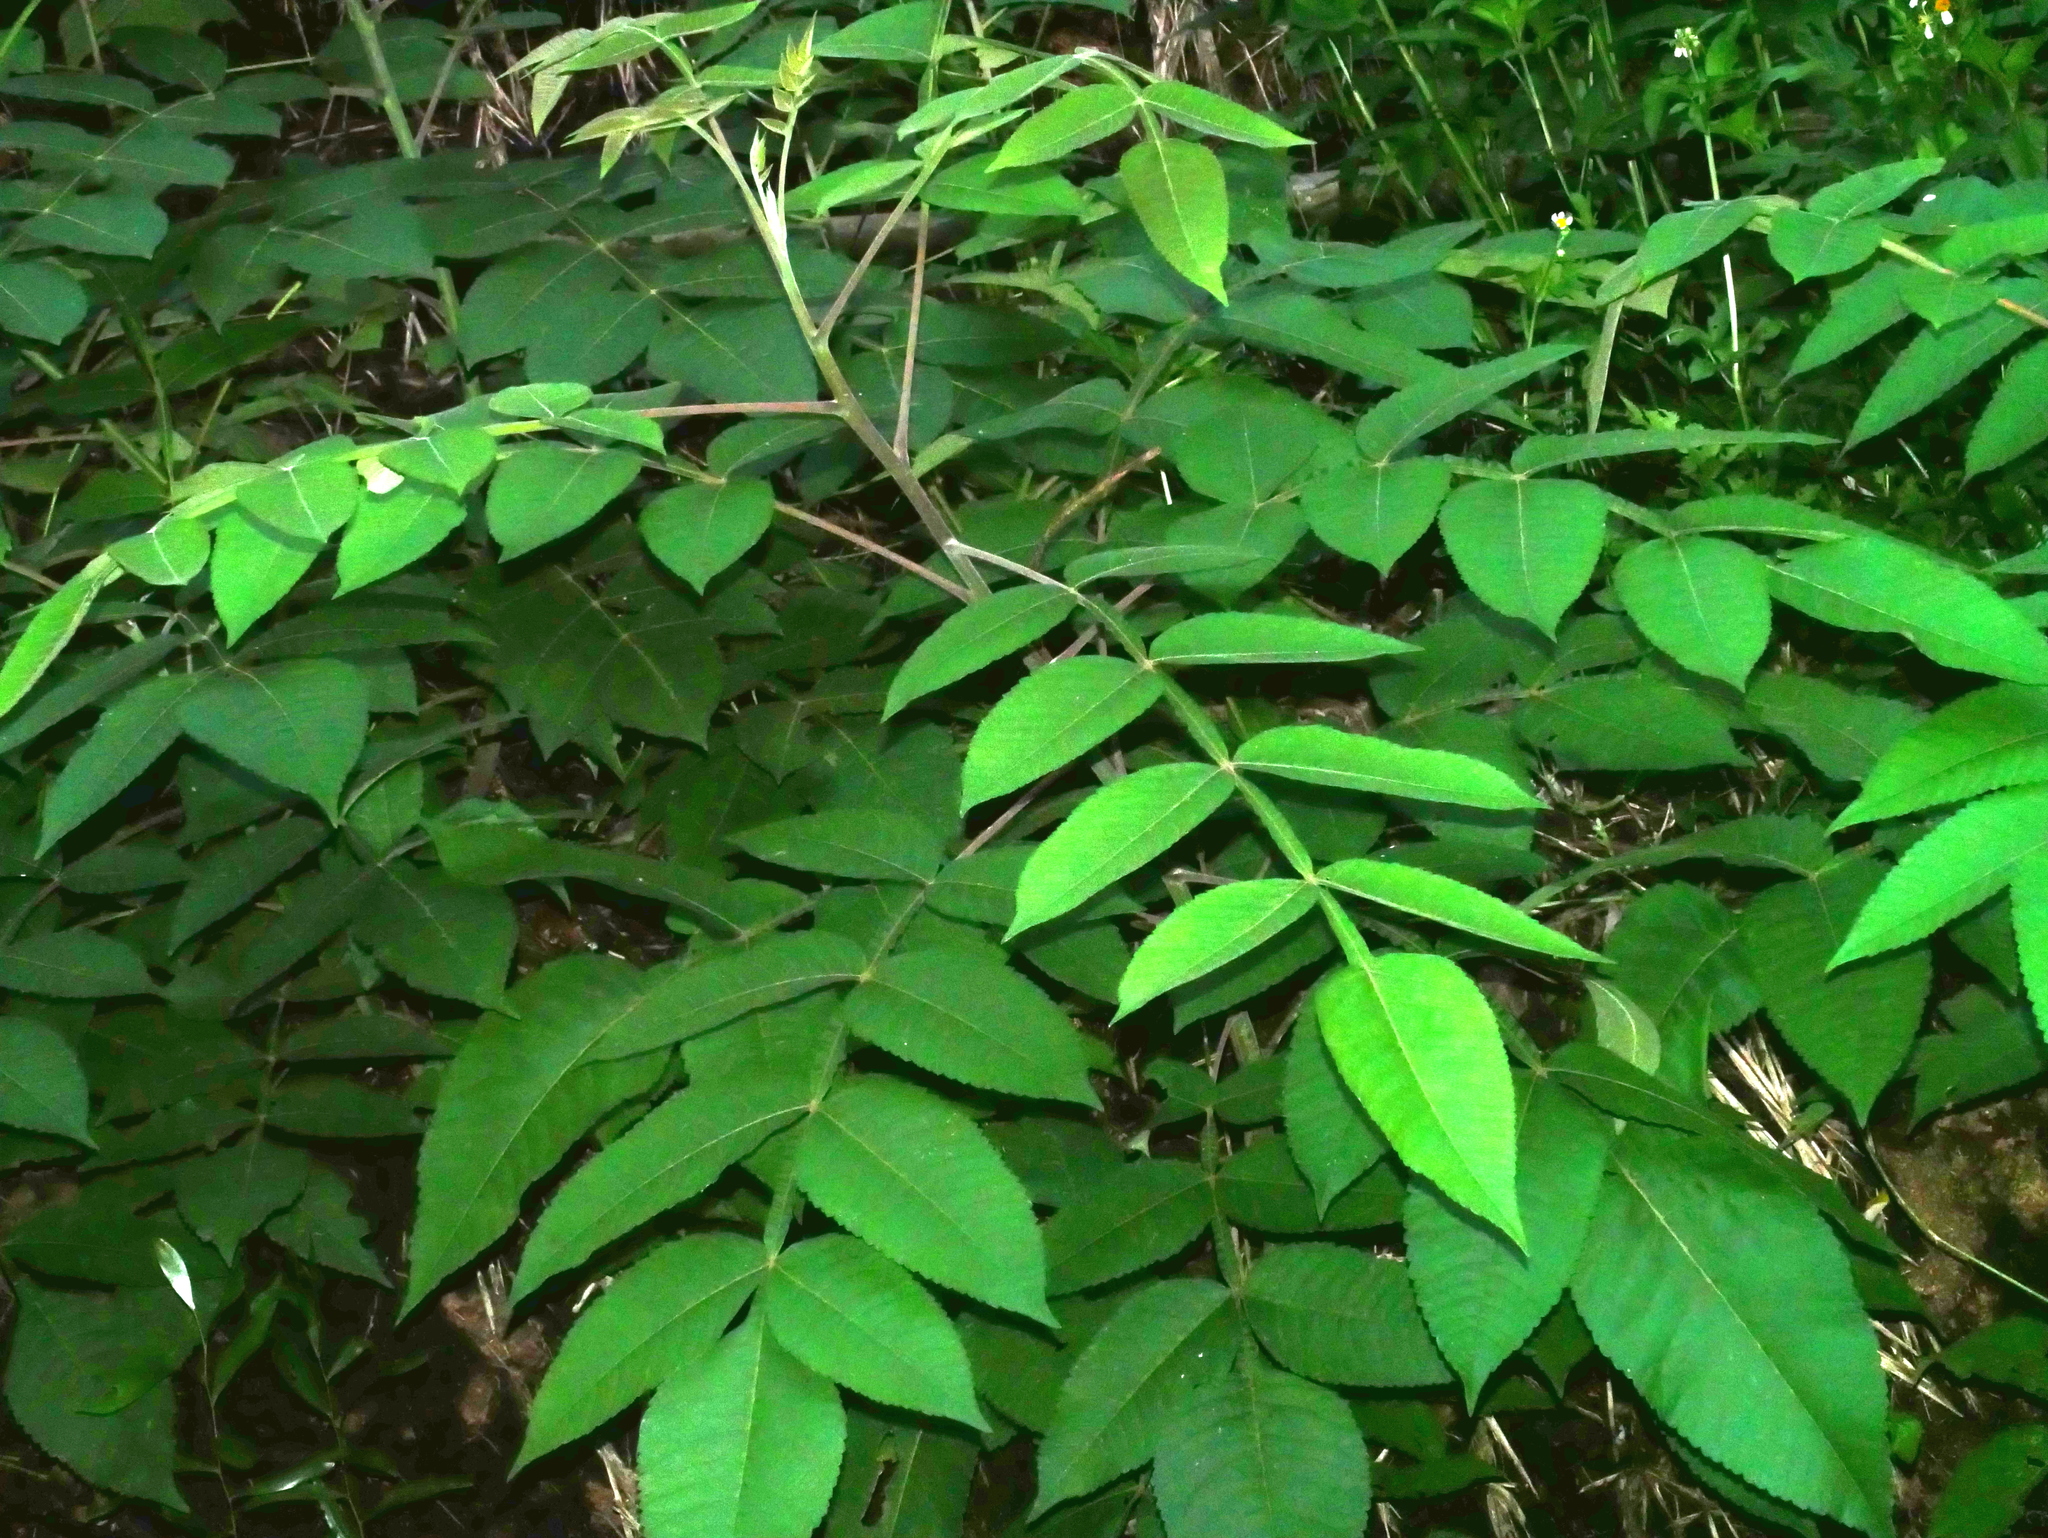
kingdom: Plantae
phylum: Tracheophyta
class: Magnoliopsida
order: Sapindales
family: Anacardiaceae
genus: Rhus
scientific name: Rhus chinensis
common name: Chinese gall
